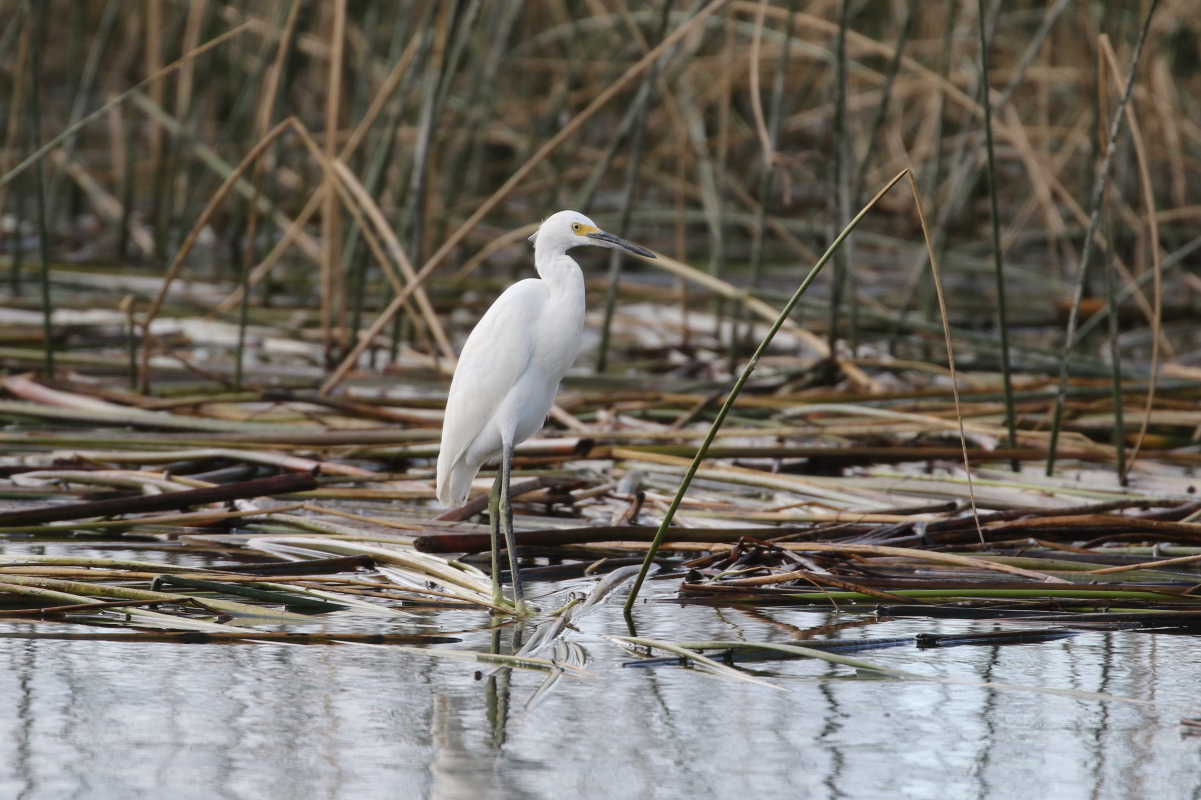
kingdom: Animalia
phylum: Chordata
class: Aves
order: Pelecaniformes
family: Ardeidae
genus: Egretta
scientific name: Egretta thula
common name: Snowy egret
